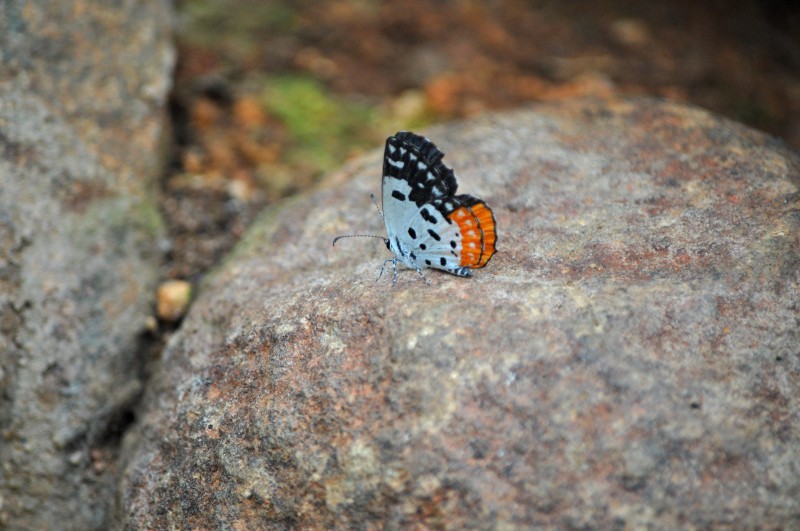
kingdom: Animalia
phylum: Arthropoda
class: Insecta
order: Lepidoptera
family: Lycaenidae
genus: Talicada
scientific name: Talicada nyseus
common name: Red pierrot
